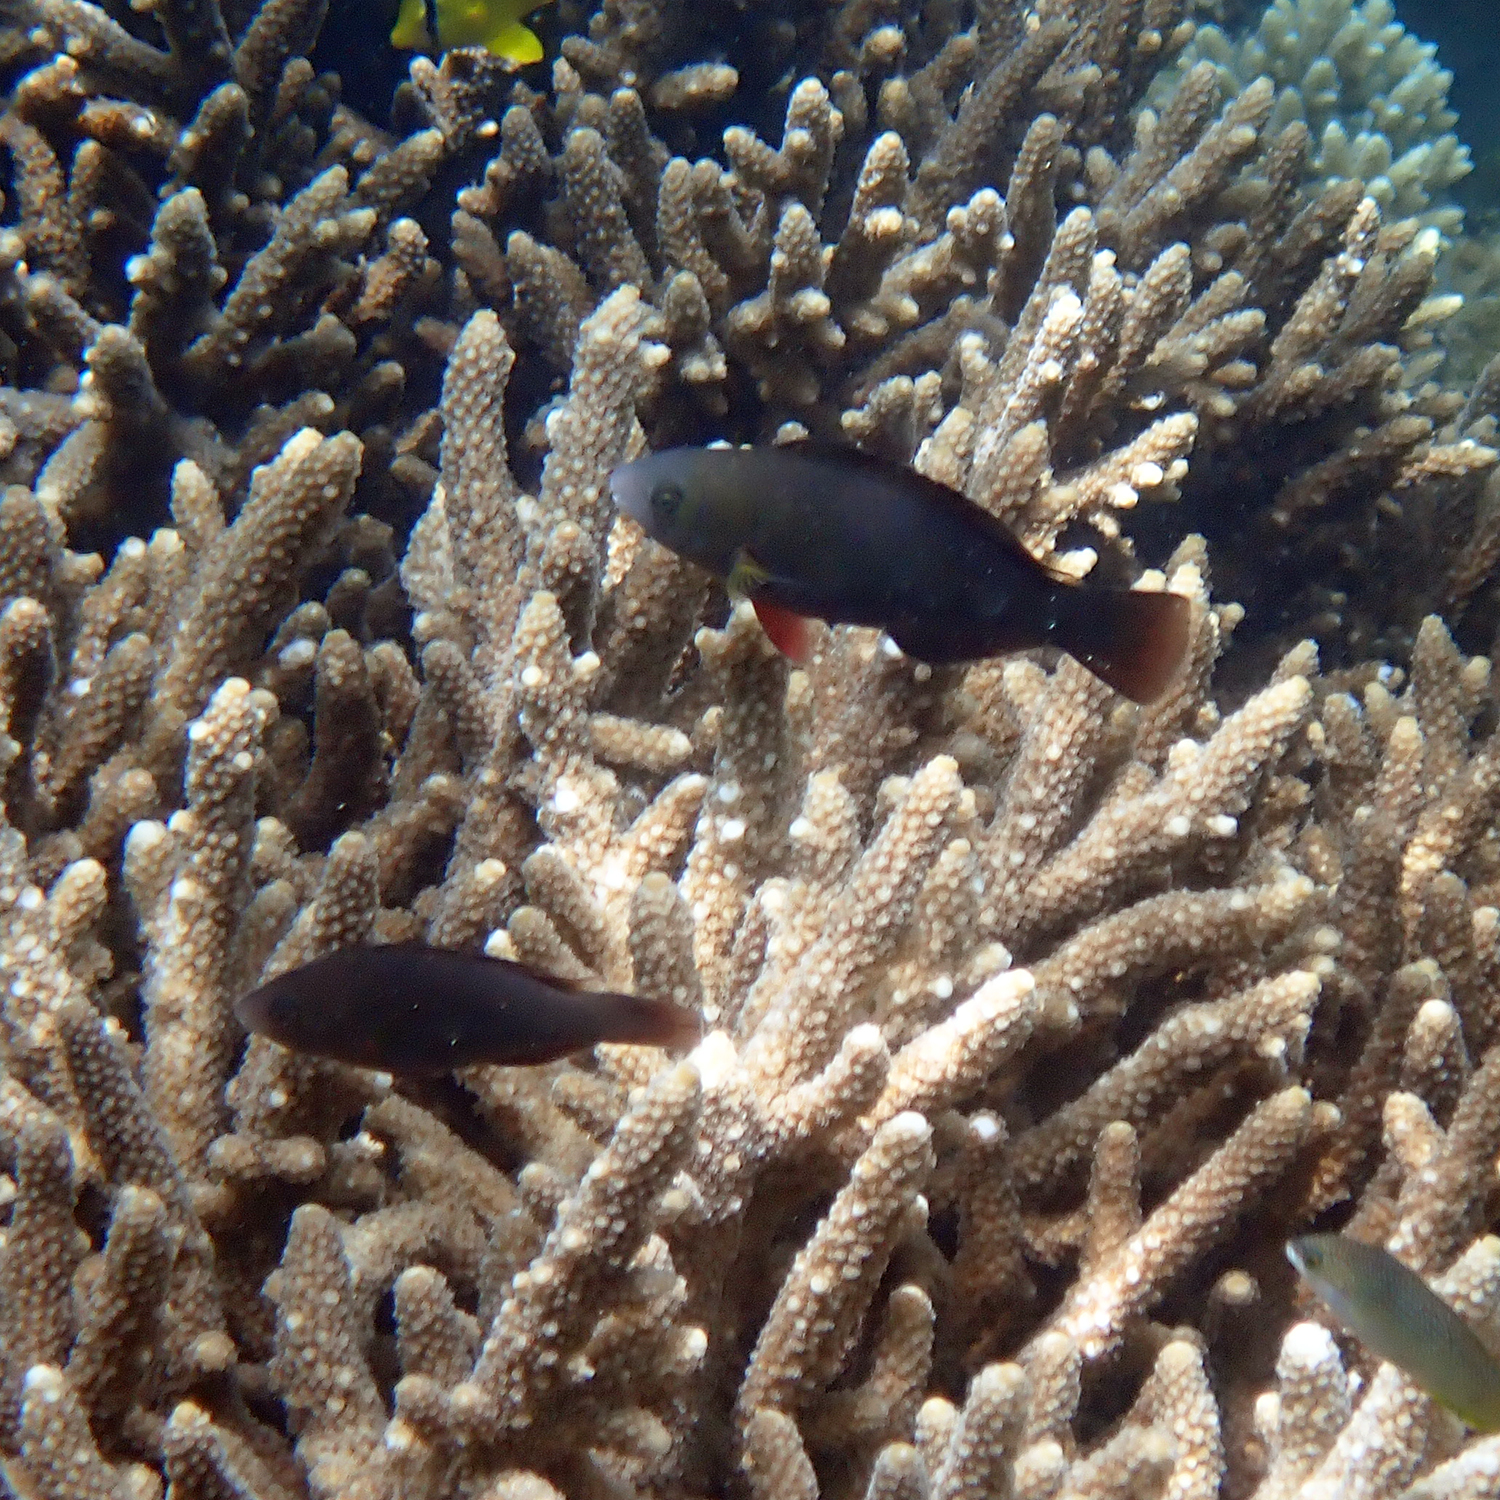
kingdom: Animalia
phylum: Chordata
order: Perciformes
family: Scaridae
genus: Scarus
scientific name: Scarus psittacus
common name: Palenose parrotfish
